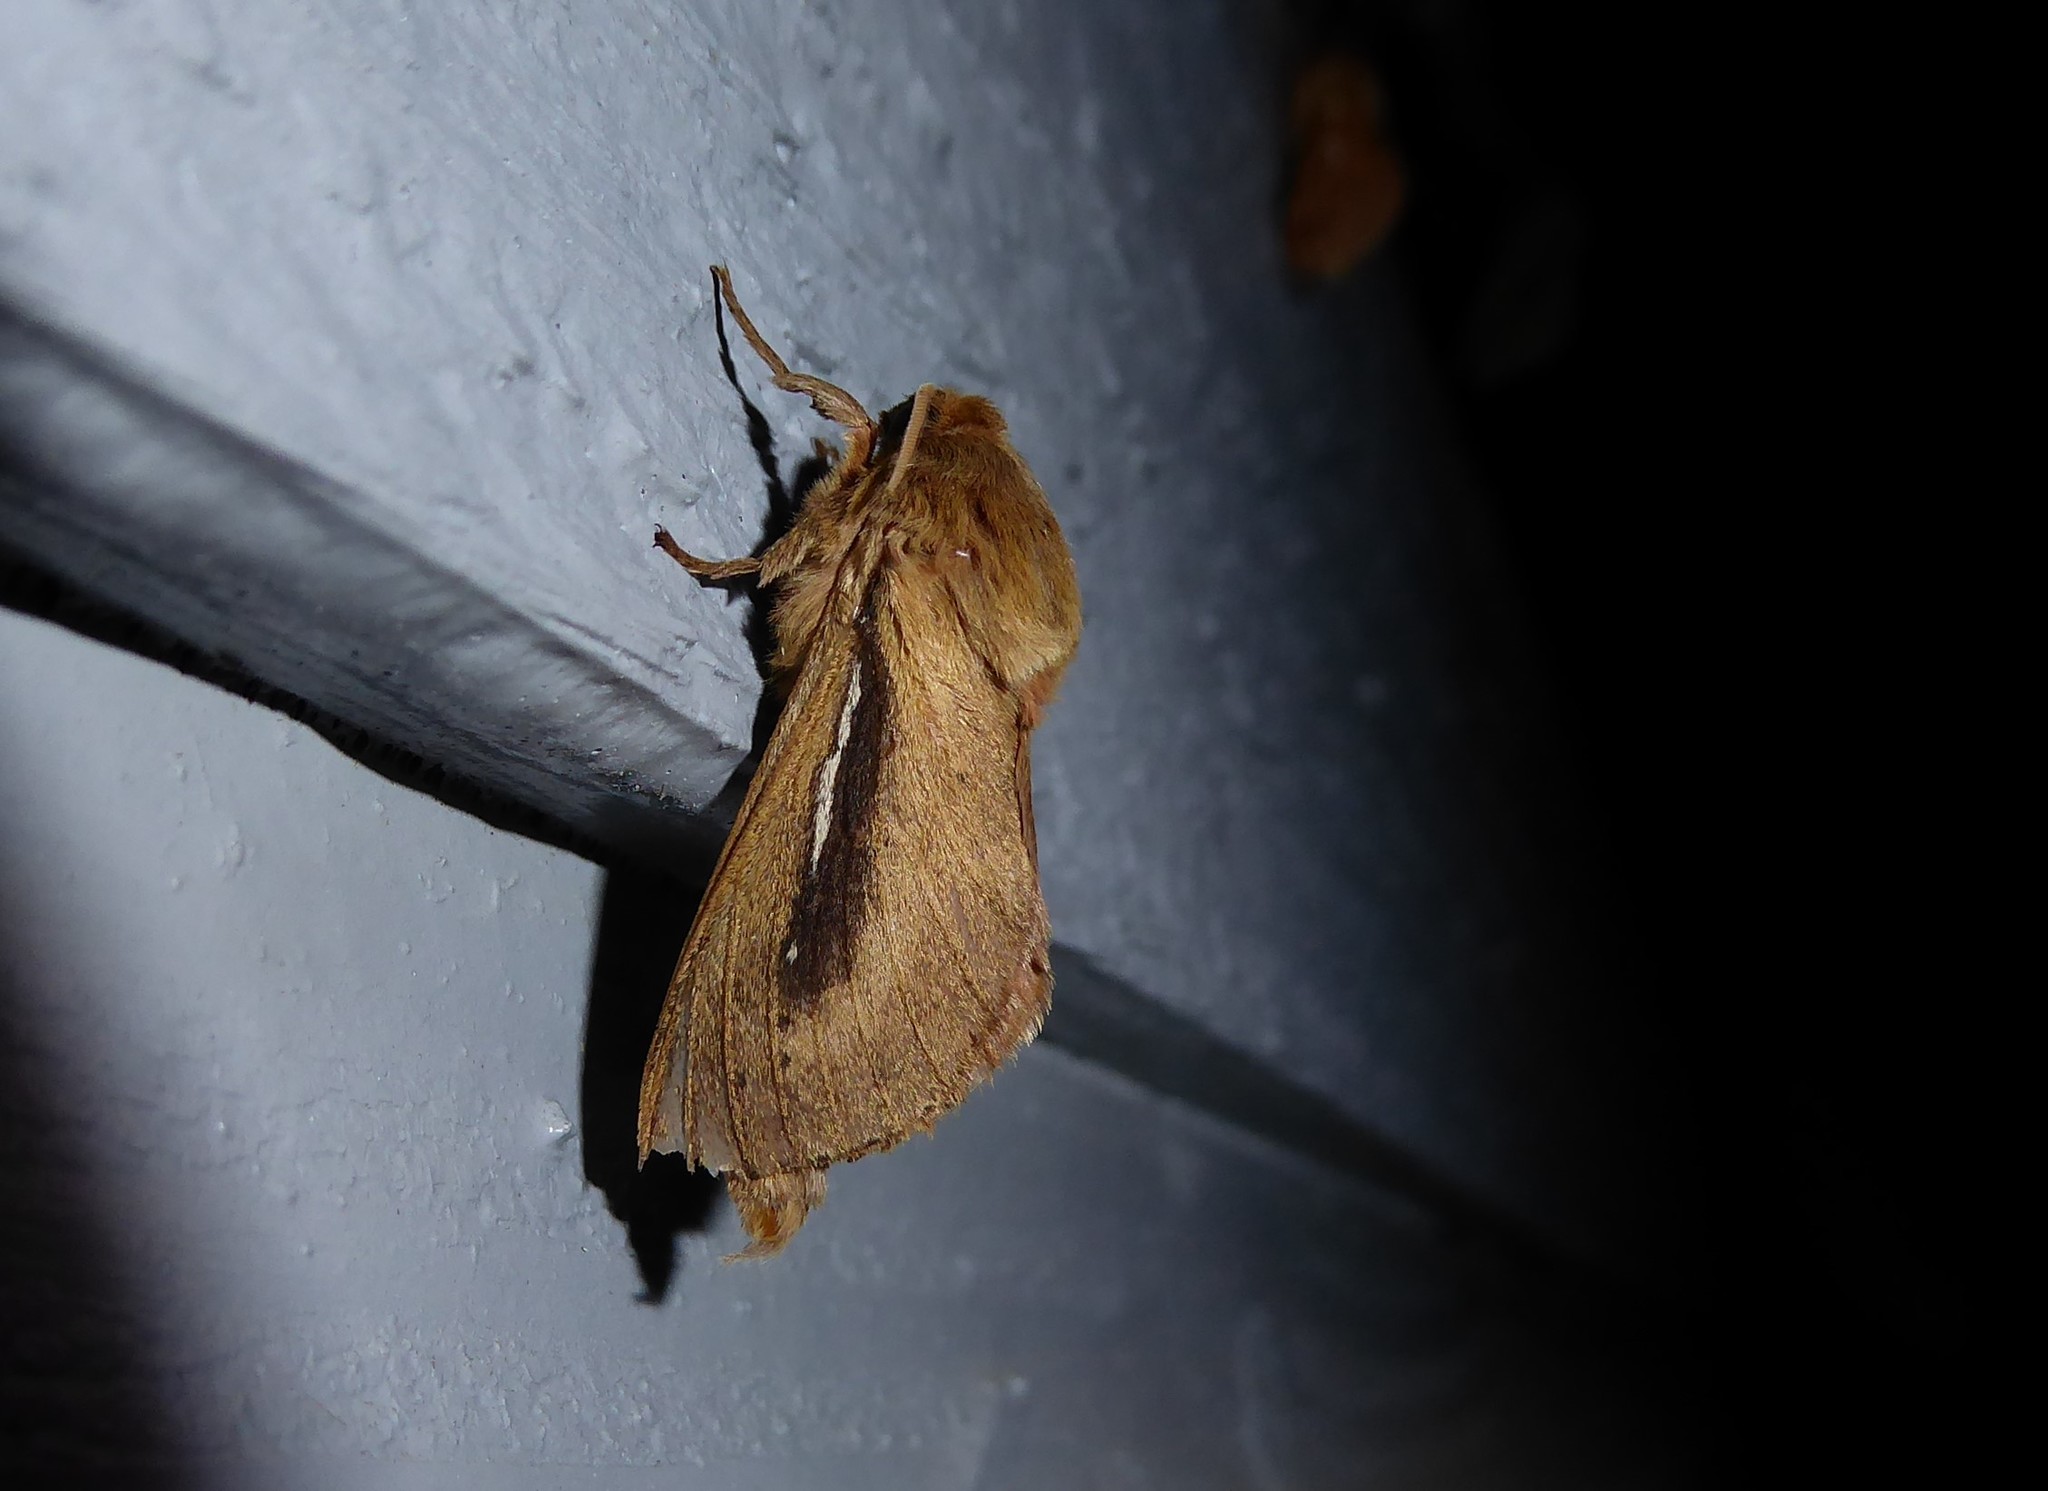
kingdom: Animalia
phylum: Arthropoda
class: Insecta
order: Lepidoptera
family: Hepialidae
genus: Wiseana
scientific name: Wiseana umbraculatus
